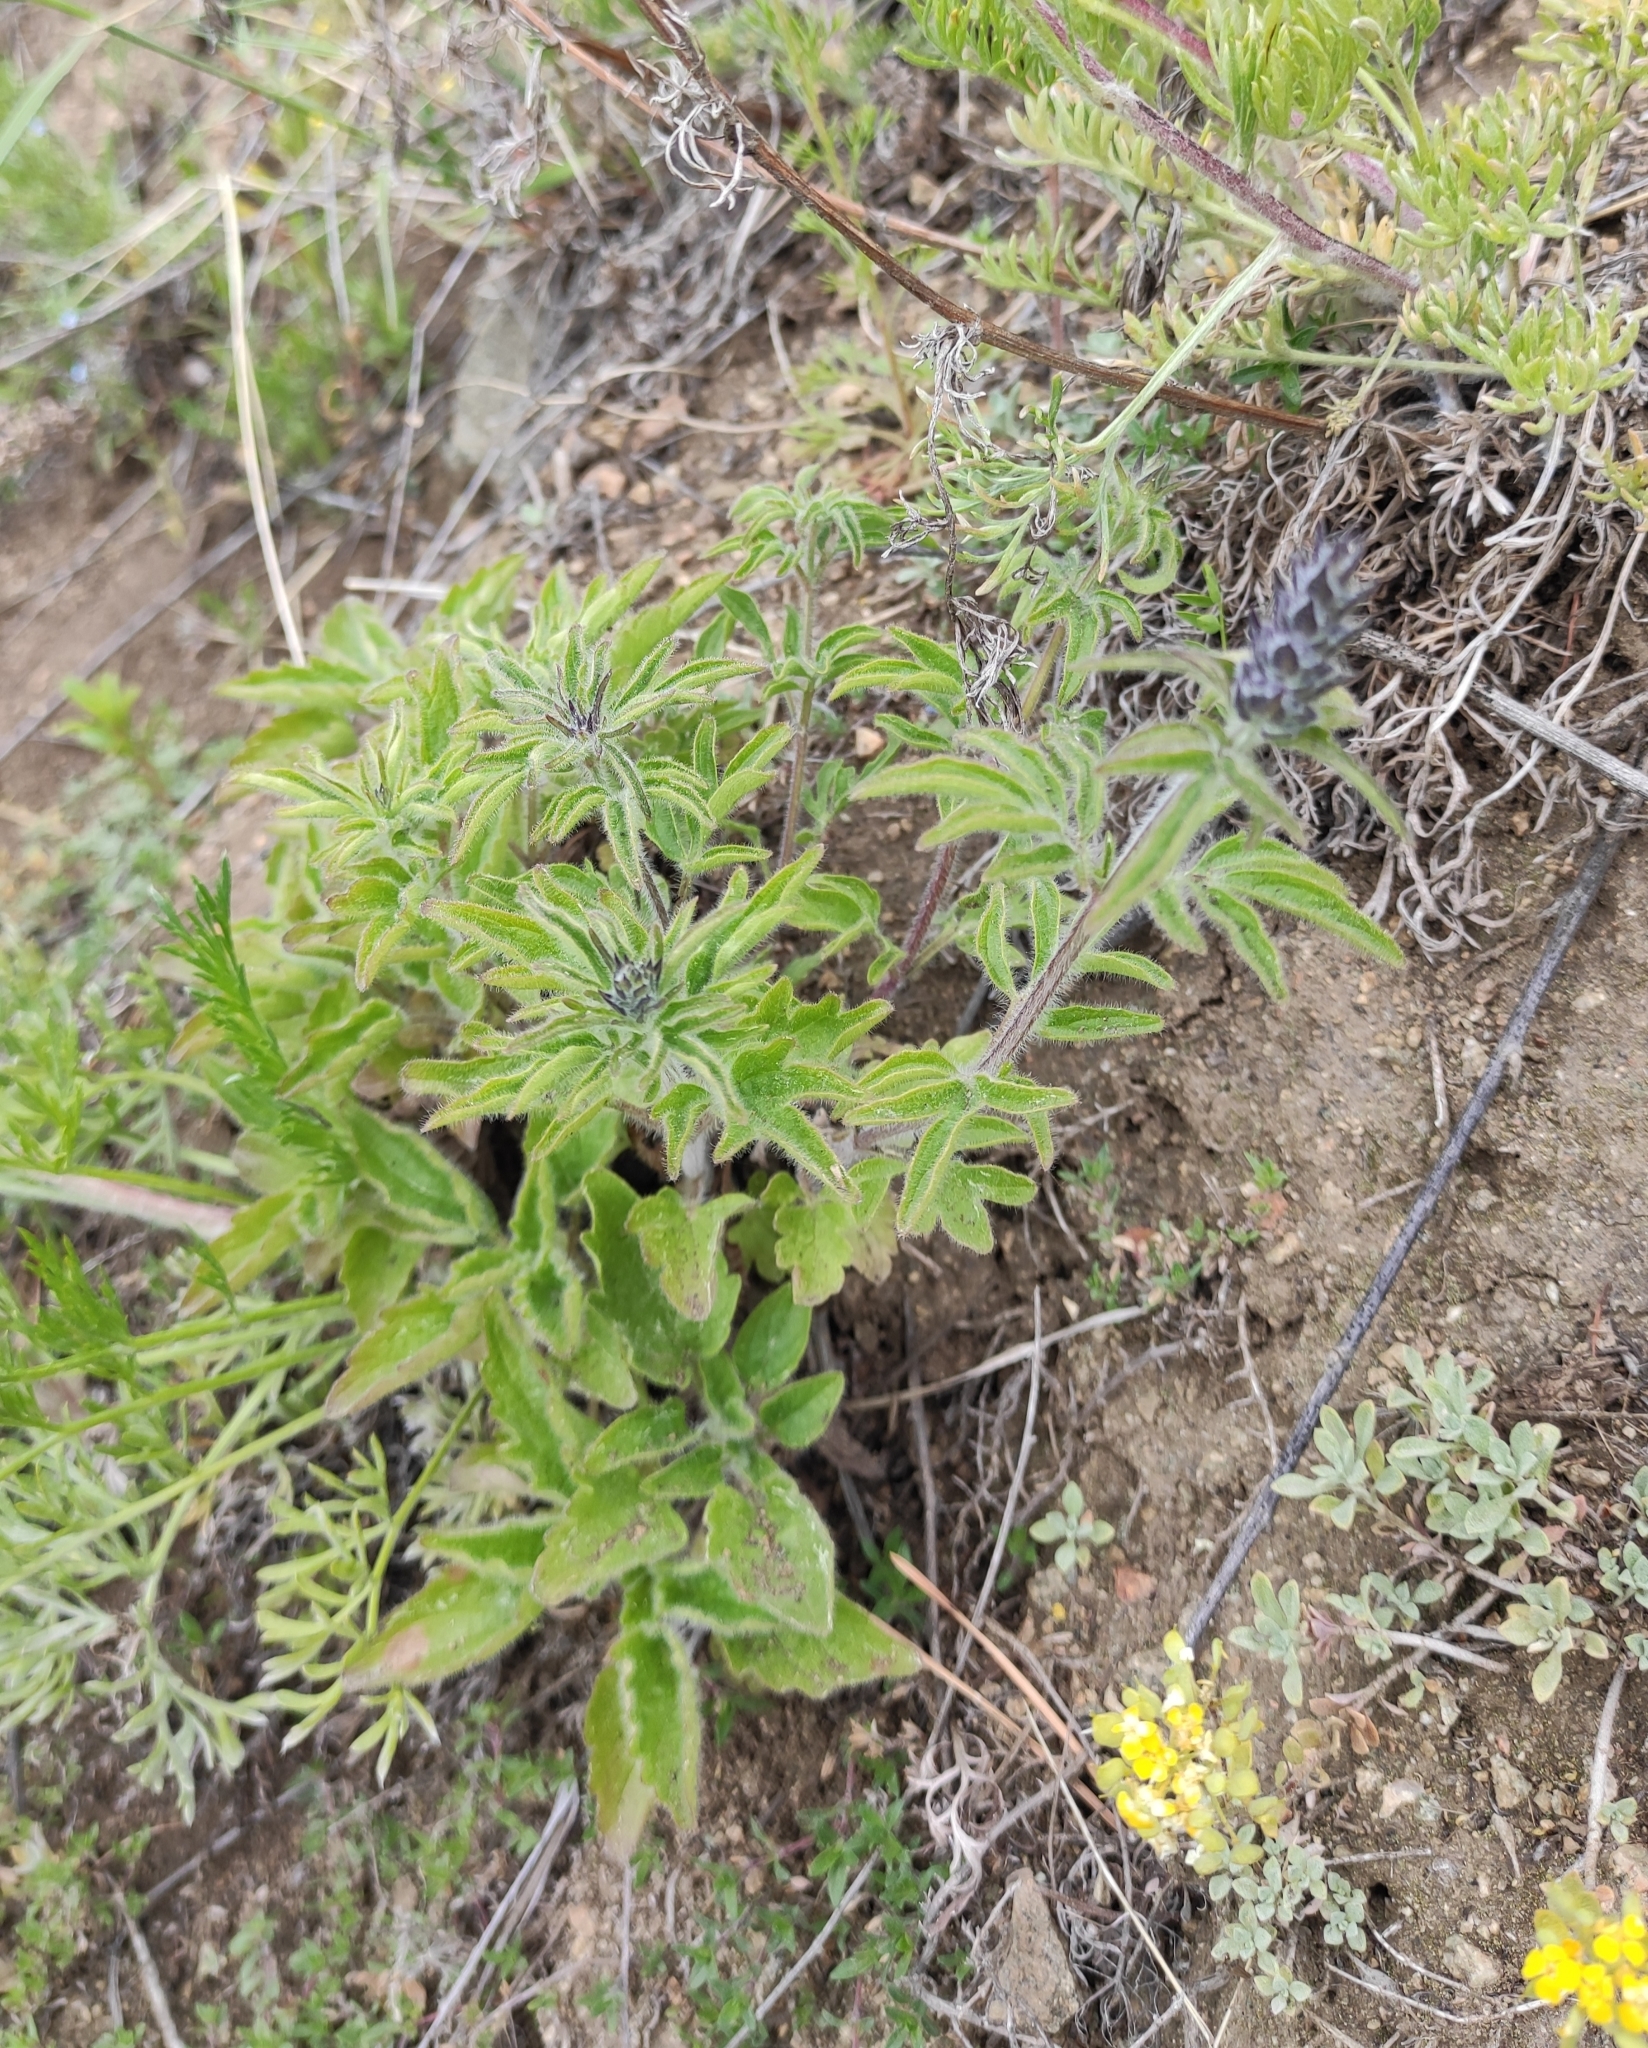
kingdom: Plantae
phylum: Tracheophyta
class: Magnoliopsida
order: Lamiales
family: Lamiaceae
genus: Nepeta
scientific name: Nepeta multifida
